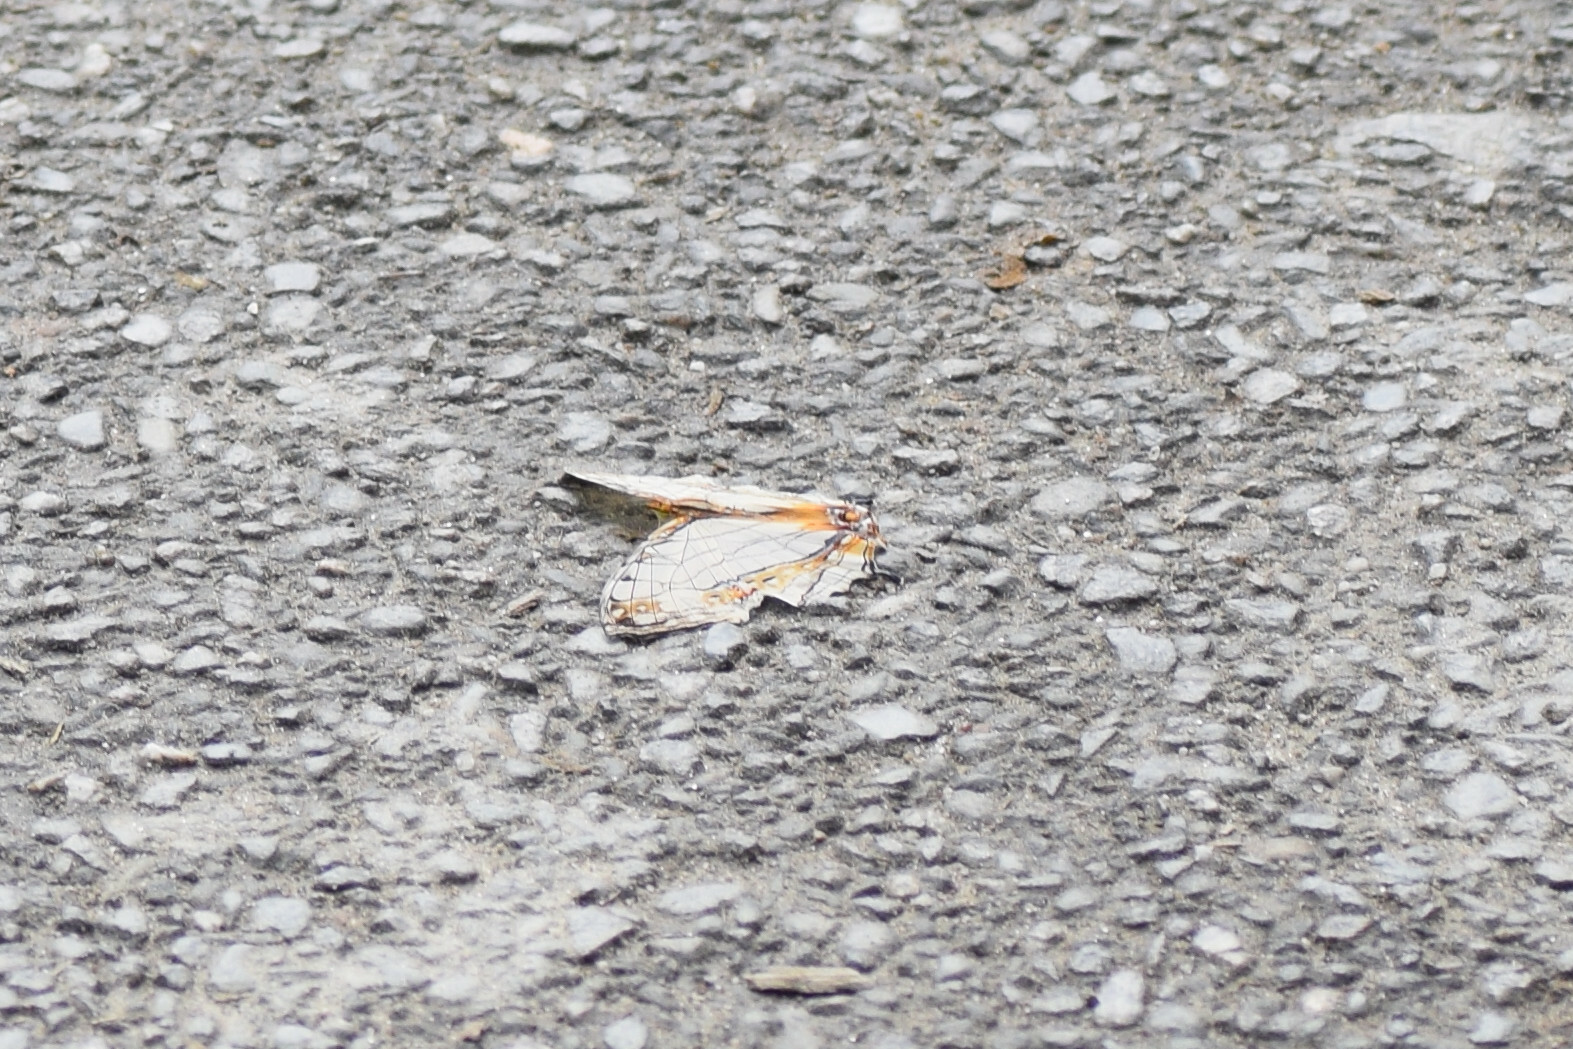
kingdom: Animalia
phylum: Arthropoda
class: Insecta
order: Lepidoptera
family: Nymphalidae
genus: Cyrestis
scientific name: Cyrestis thyodamas
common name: Common mapwing
